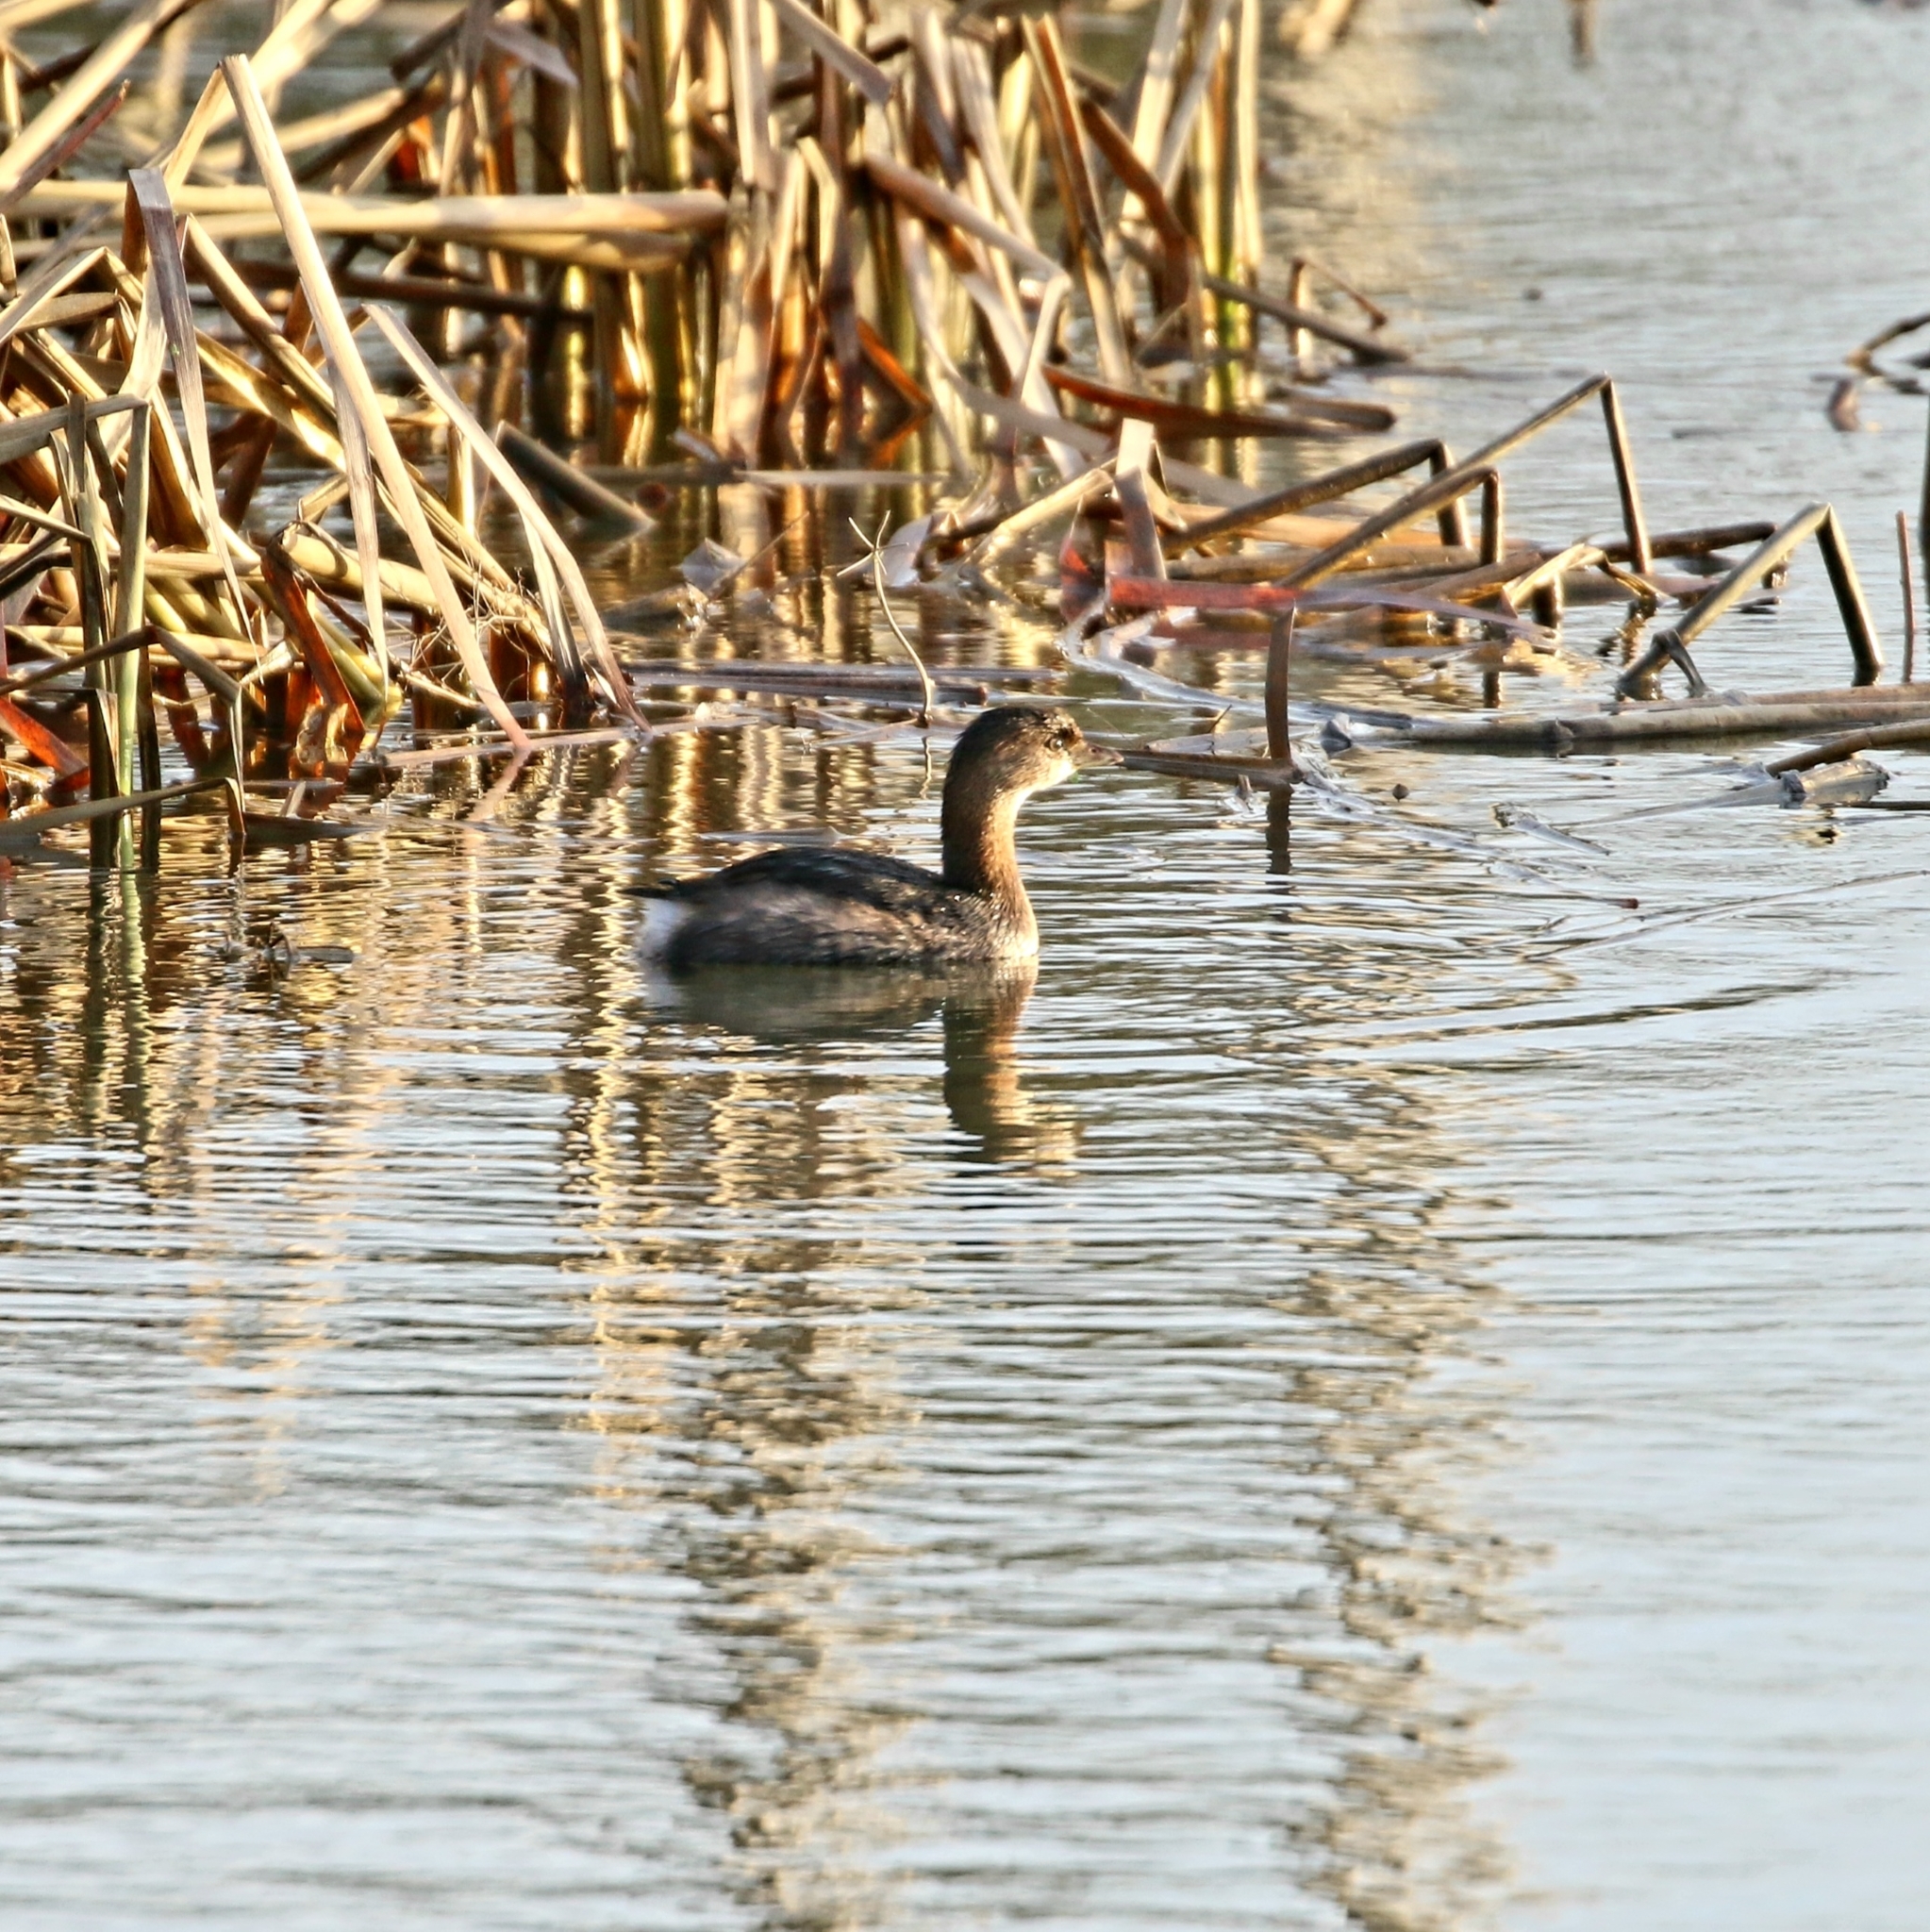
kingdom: Animalia
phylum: Chordata
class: Aves
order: Podicipediformes
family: Podicipedidae
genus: Podilymbus
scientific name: Podilymbus podiceps
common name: Pied-billed grebe
